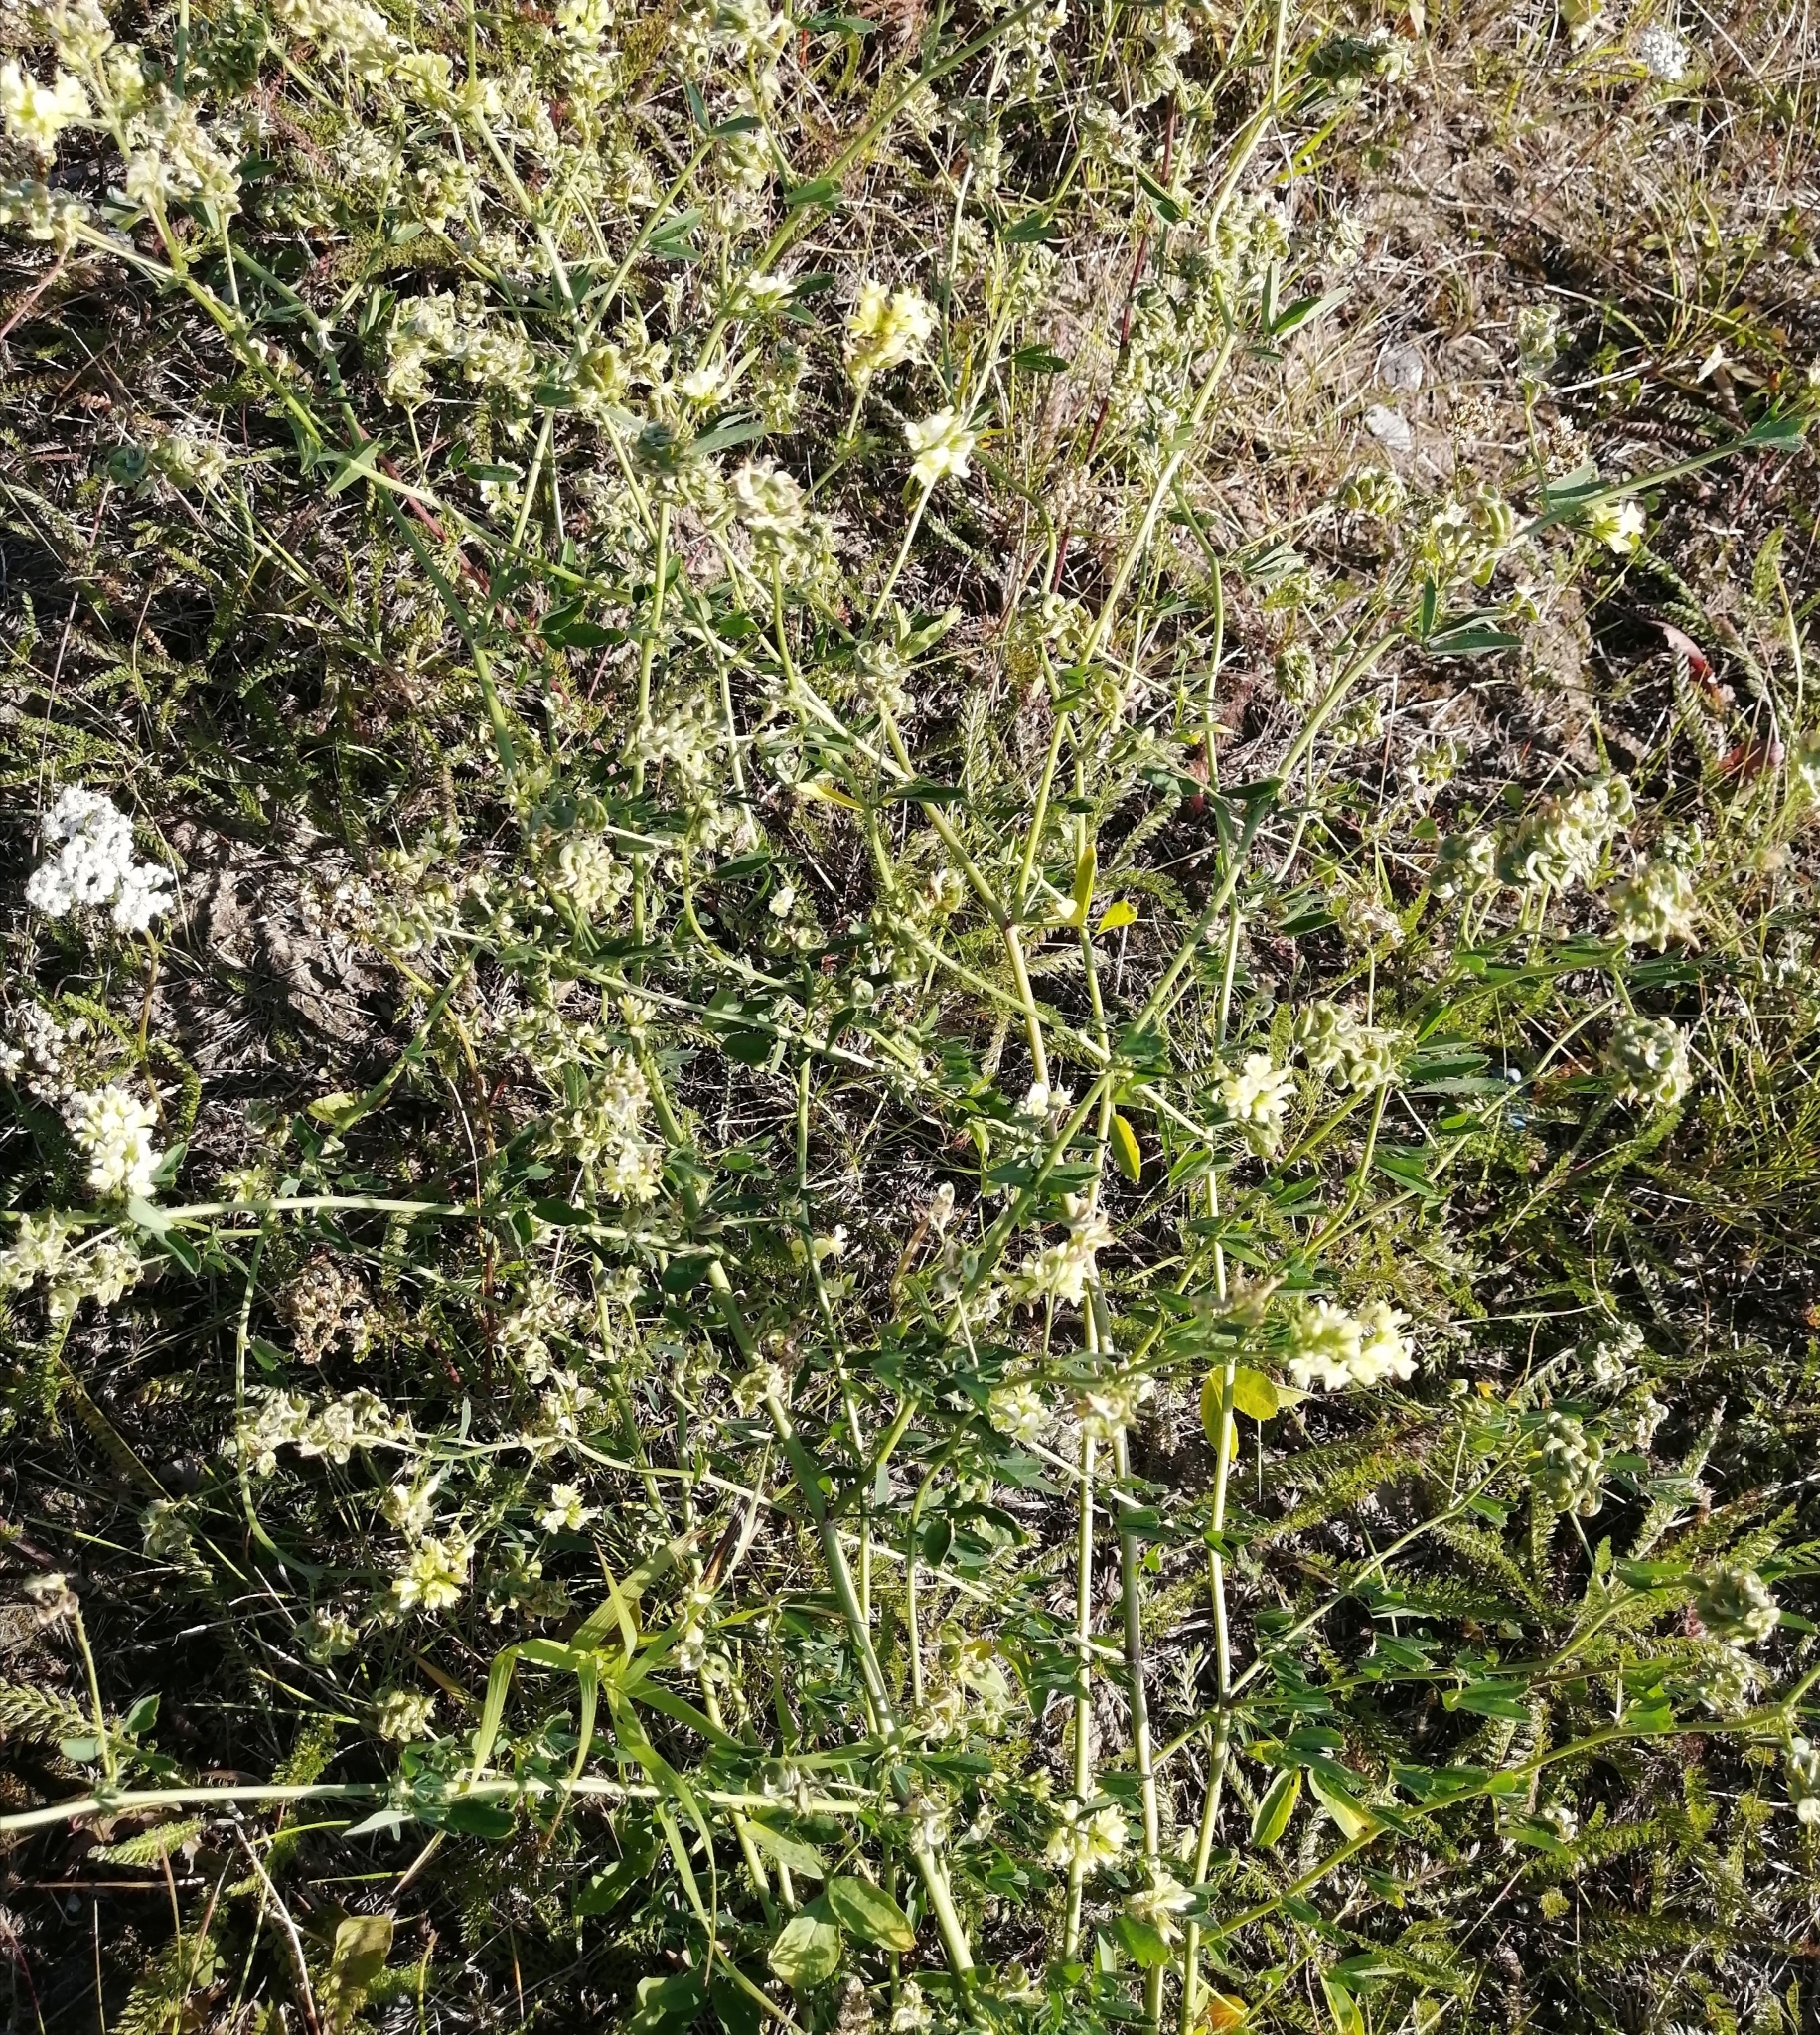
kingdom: Plantae
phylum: Tracheophyta
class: Magnoliopsida
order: Fabales
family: Fabaceae
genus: Medicago
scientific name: Medicago varia
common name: Sand lucerne
